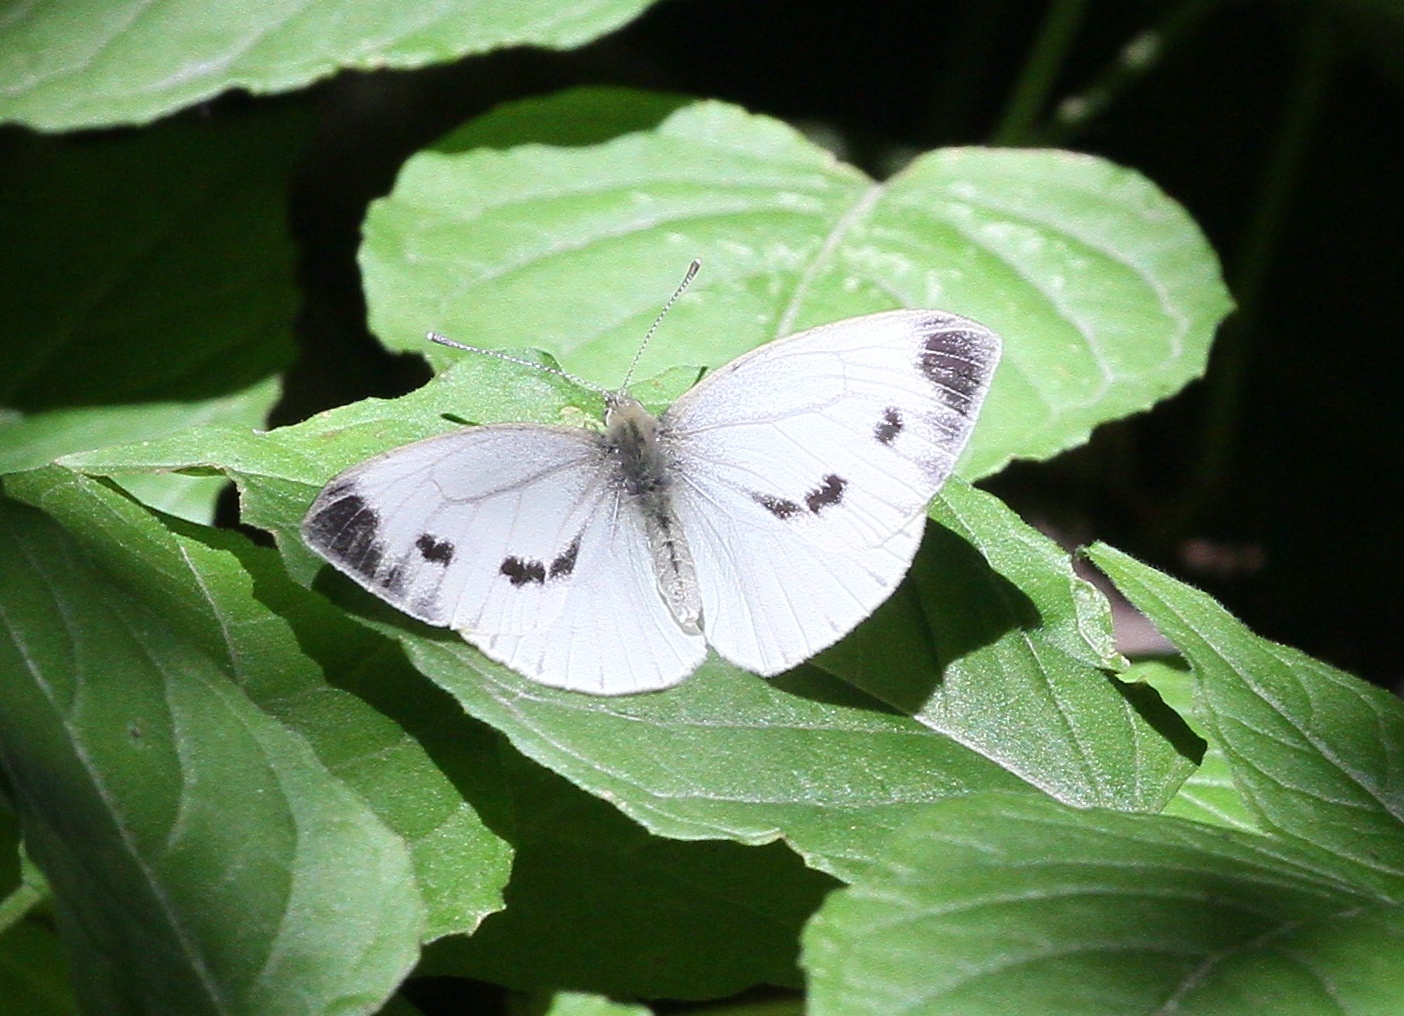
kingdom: Animalia
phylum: Arthropoda
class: Insecta
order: Lepidoptera
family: Pieridae
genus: Pieris
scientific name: Pieris napi
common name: Green-veined white
